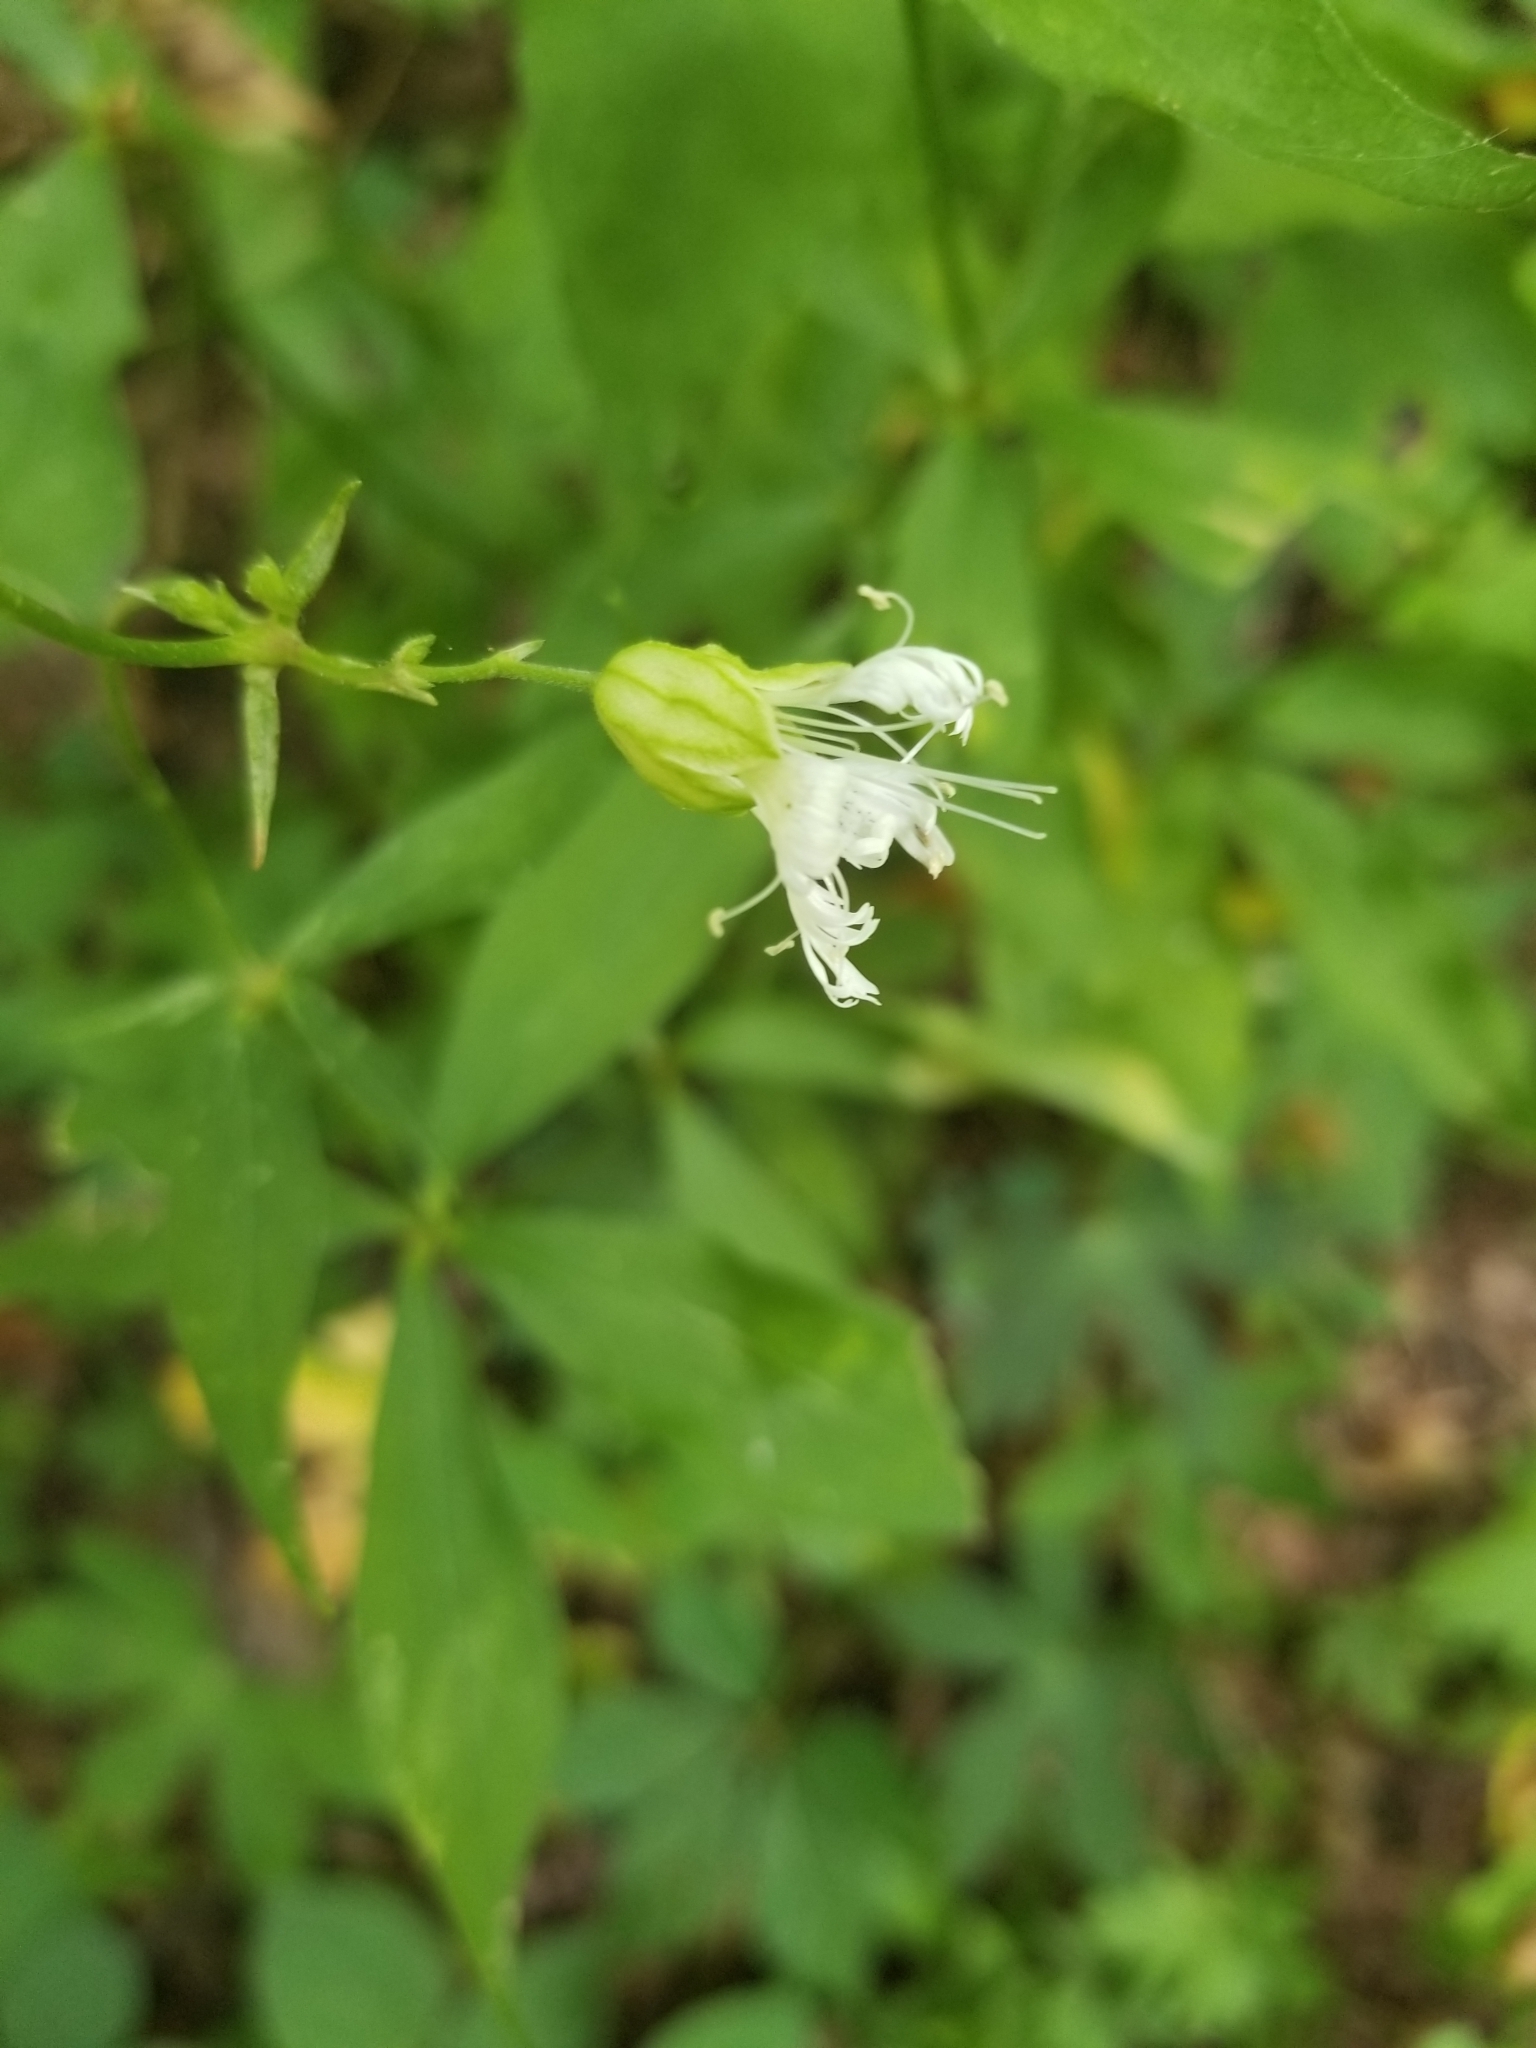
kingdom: Plantae
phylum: Tracheophyta
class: Magnoliopsida
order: Caryophyllales
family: Caryophyllaceae
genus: Silene
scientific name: Silene stellata
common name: Starry campion
